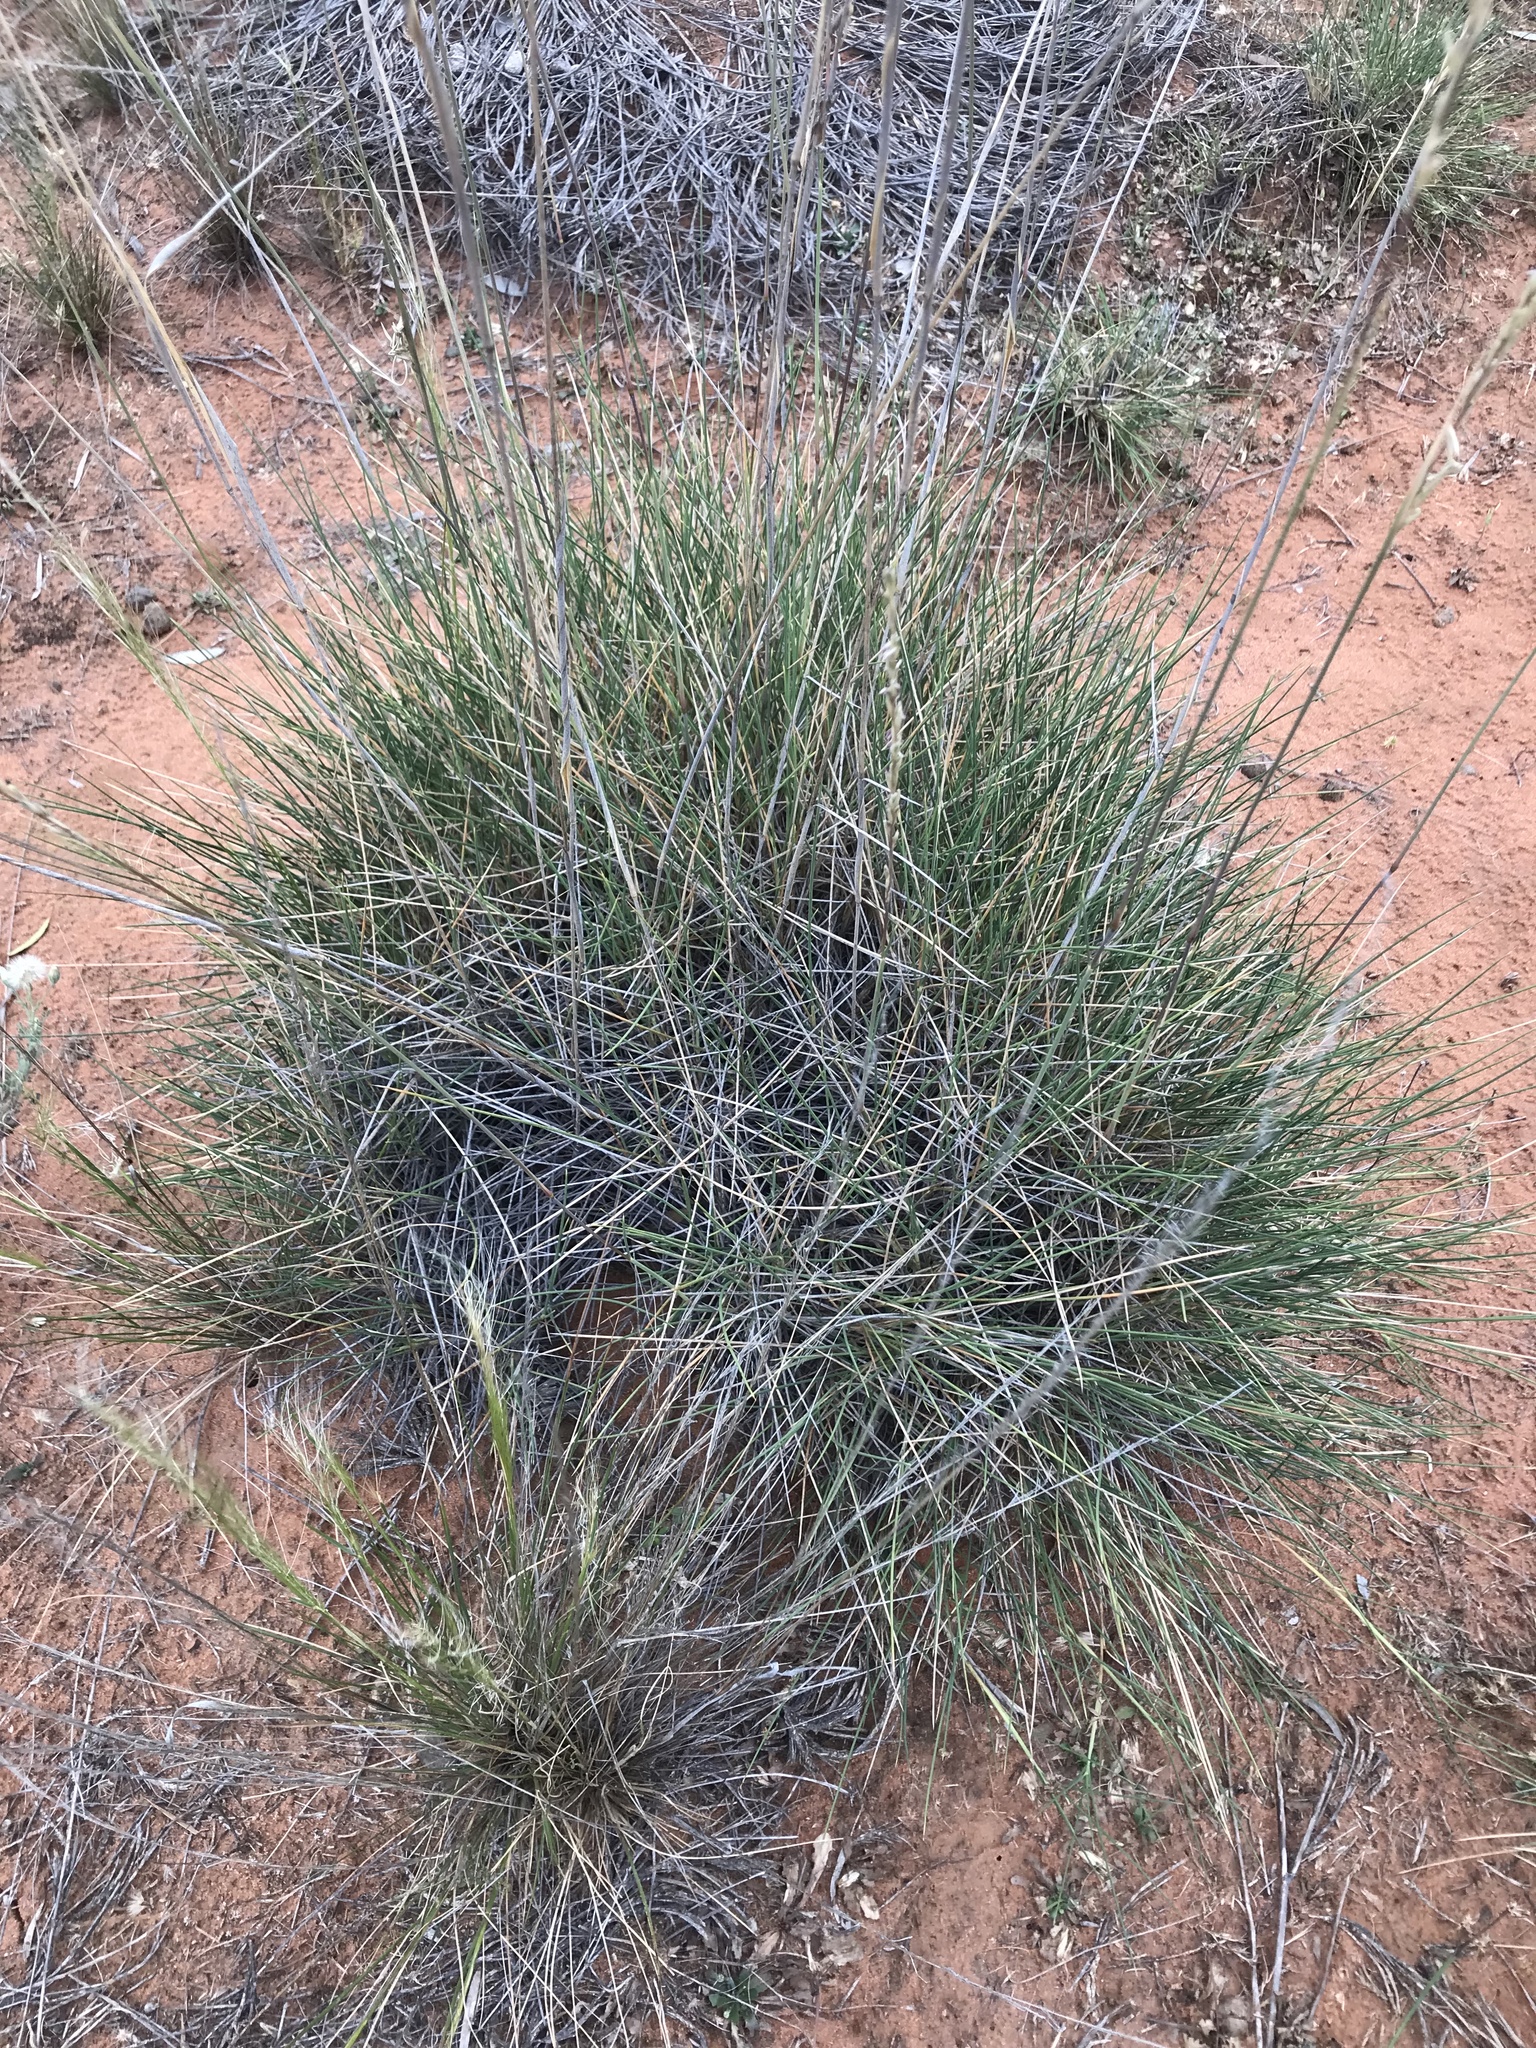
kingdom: Plantae
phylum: Tracheophyta
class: Liliopsida
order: Poales
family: Poaceae
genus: Triodia
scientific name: Triodia scariosa
